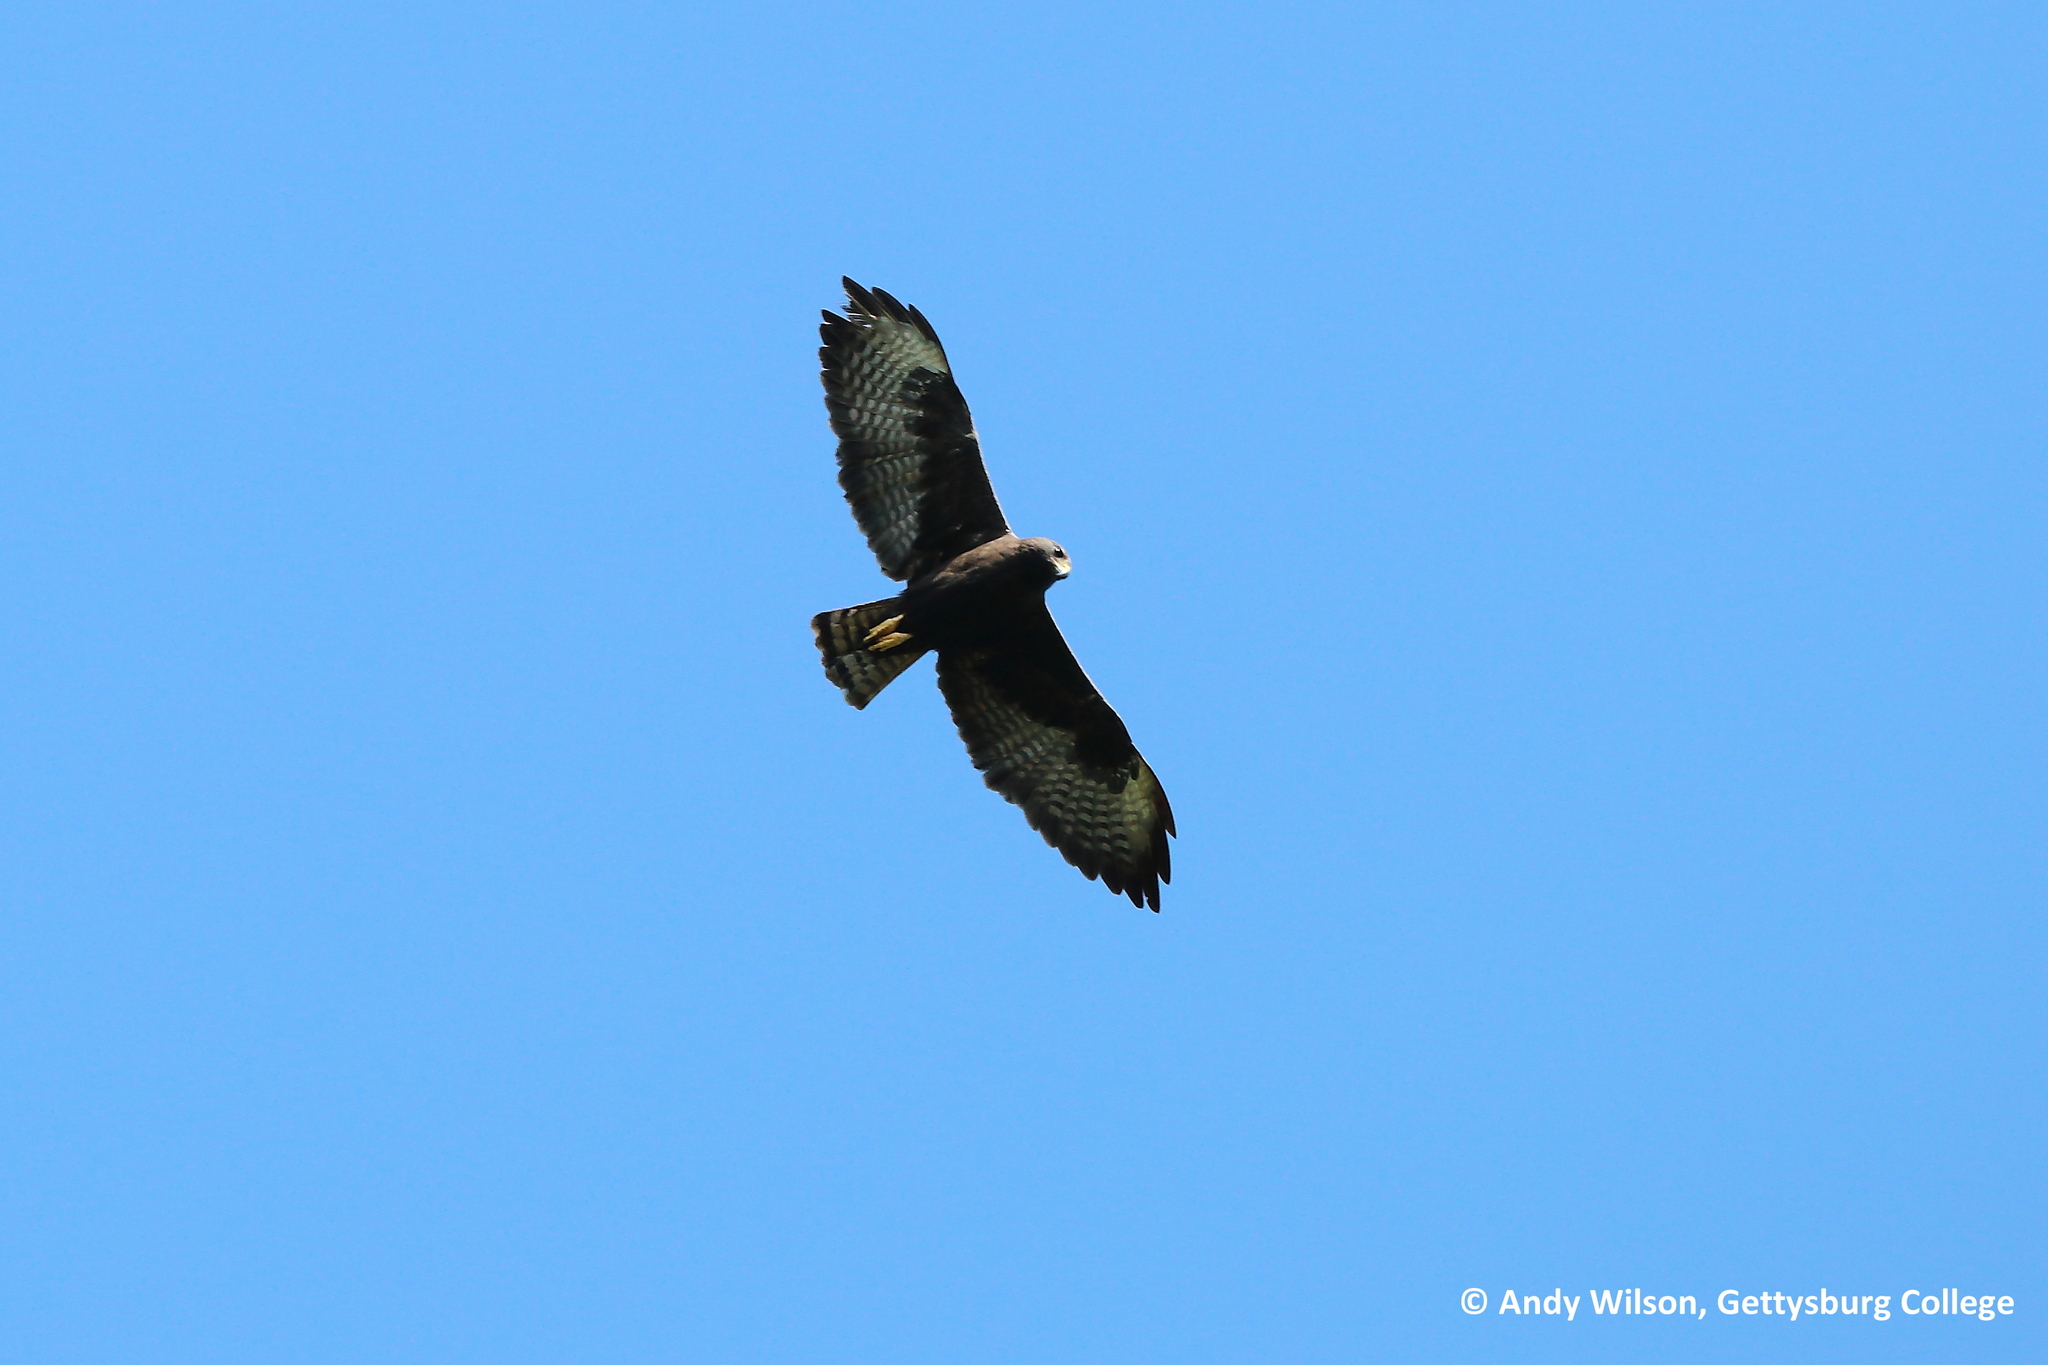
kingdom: Animalia
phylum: Chordata
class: Aves
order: Accipitriformes
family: Accipitridae
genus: Buteo
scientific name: Buteo brachyurus
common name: Short-tailed hawk
